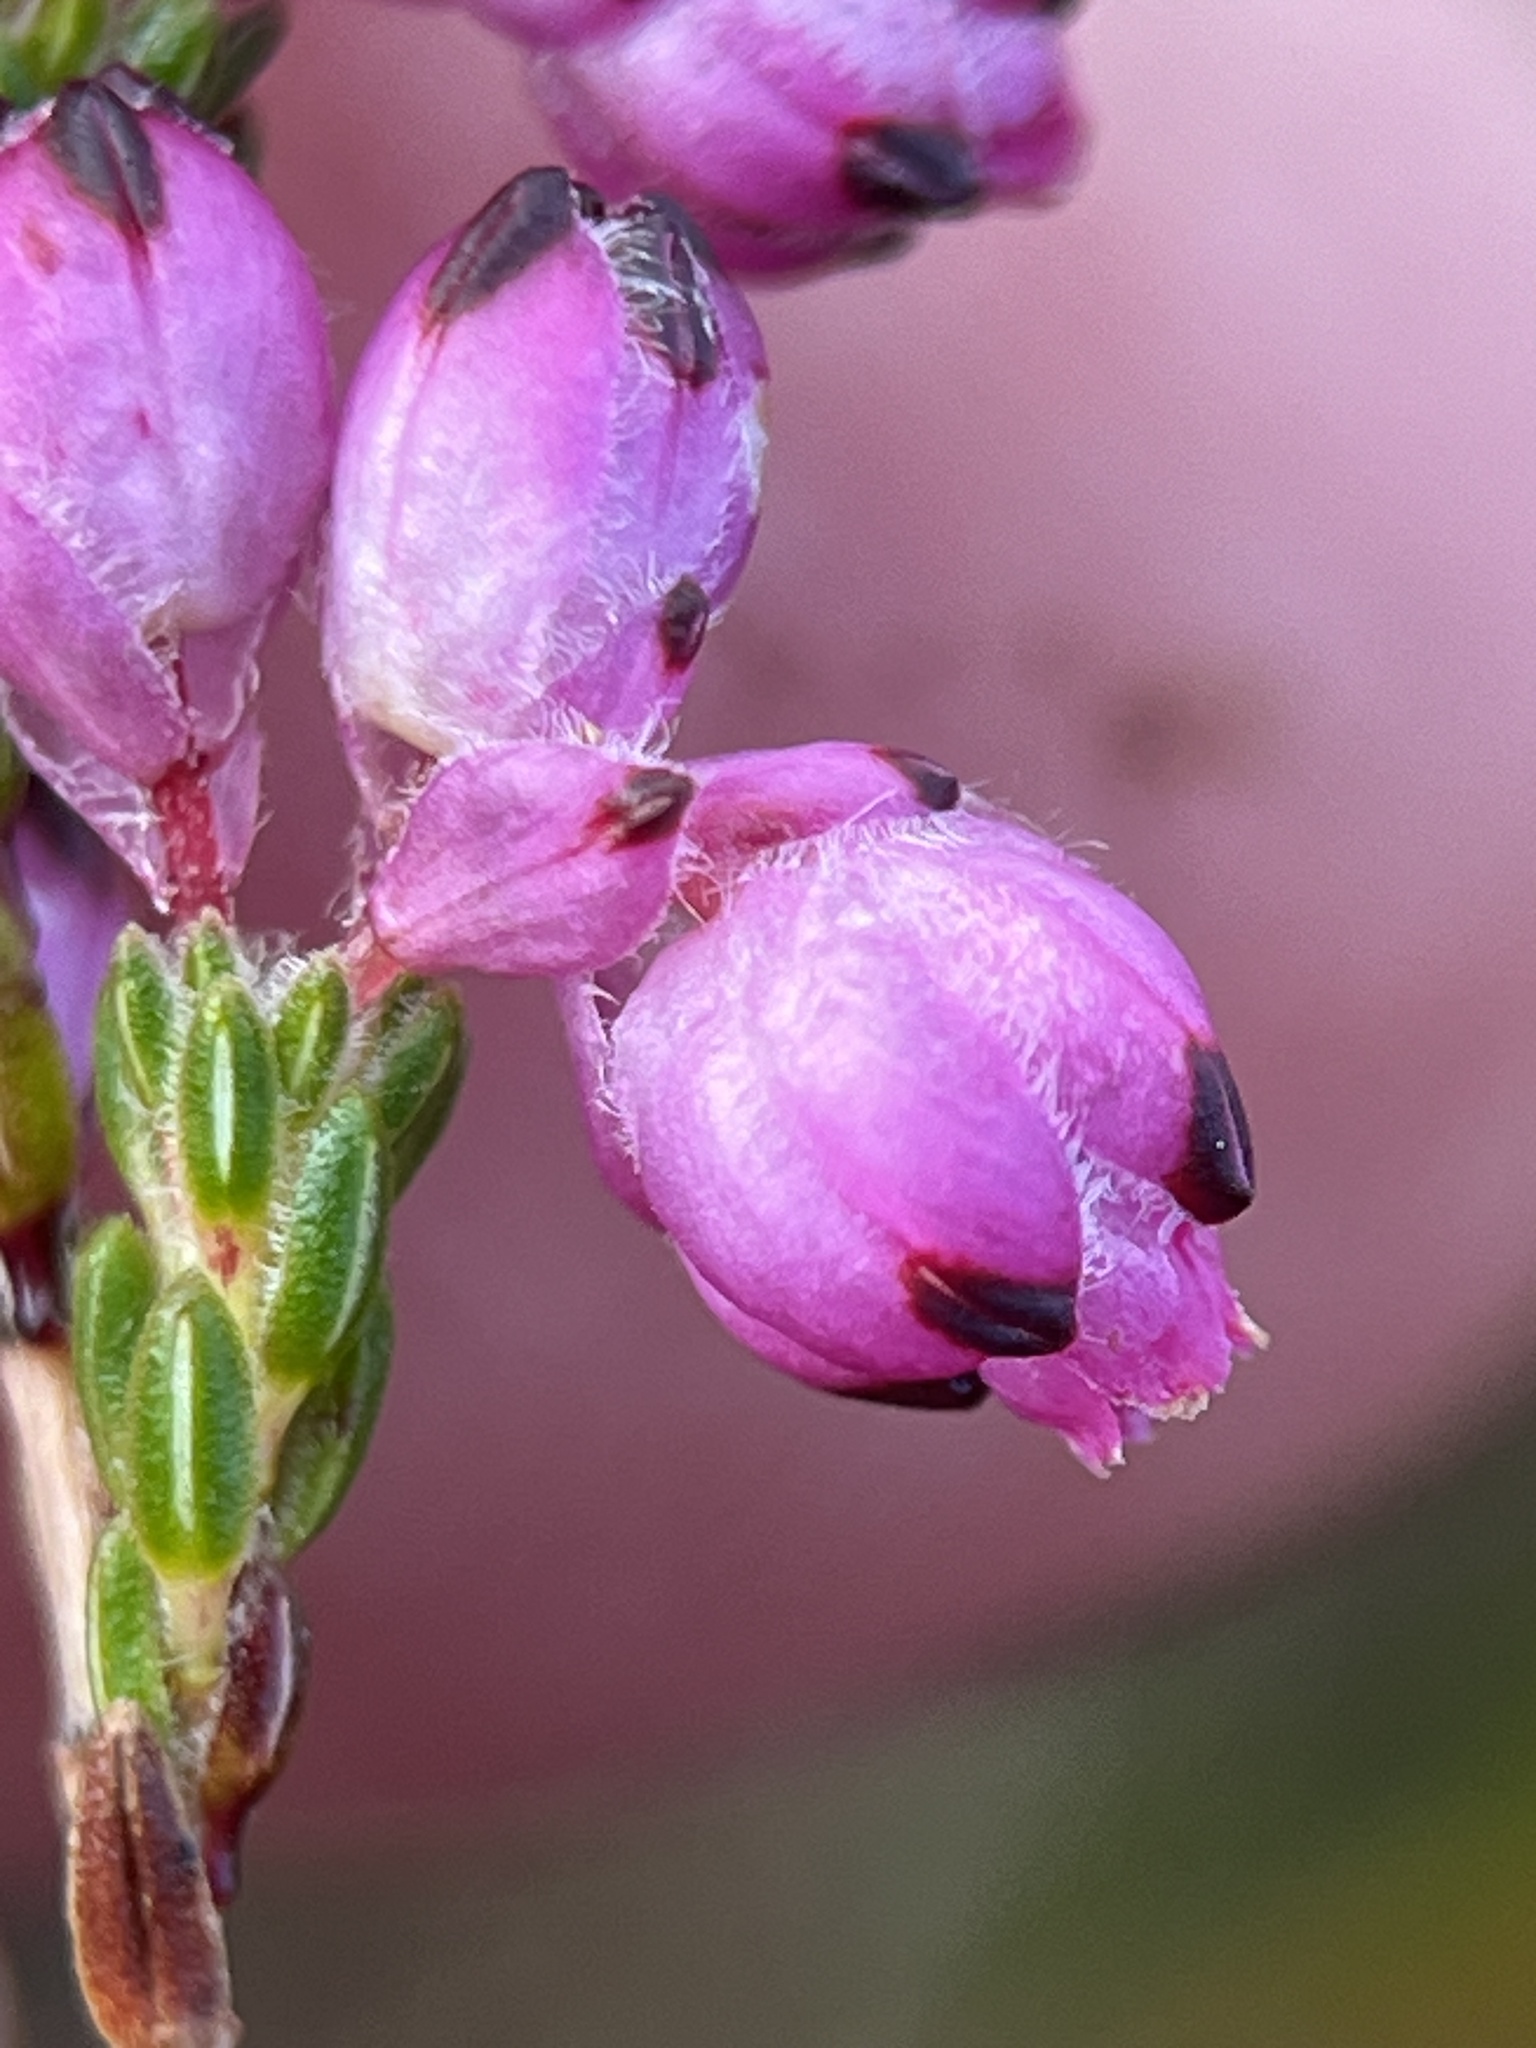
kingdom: Plantae
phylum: Tracheophyta
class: Magnoliopsida
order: Ericales
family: Ericaceae
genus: Erica
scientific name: Erica melanacme
